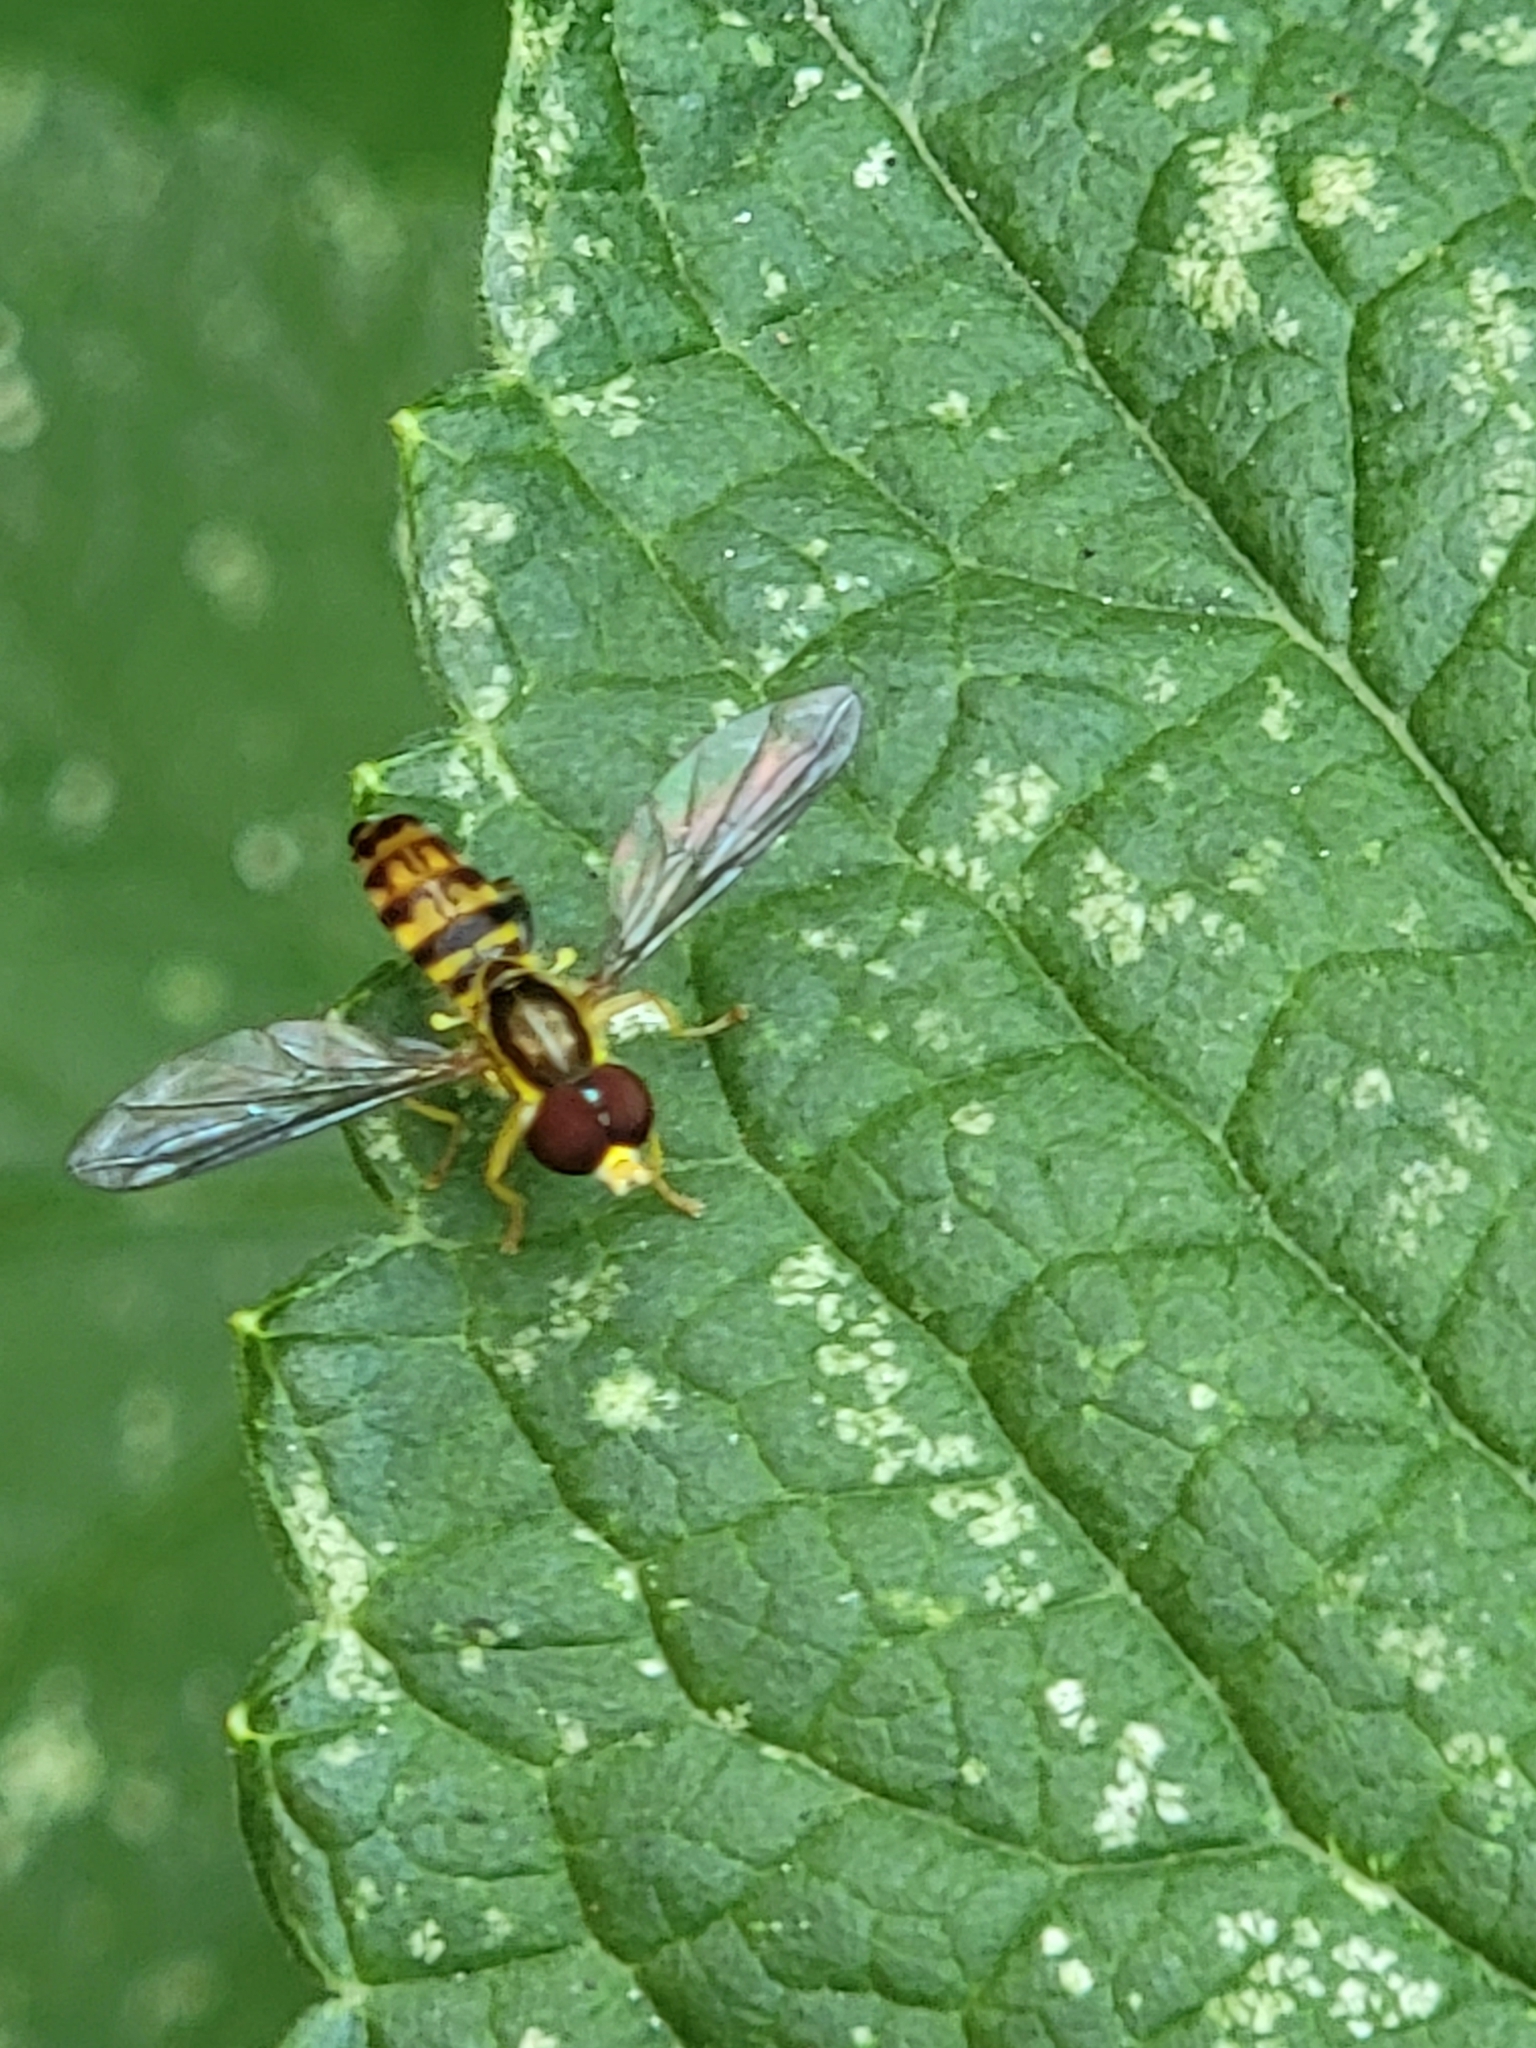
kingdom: Animalia
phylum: Arthropoda
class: Insecta
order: Diptera
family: Syrphidae
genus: Toxomerus
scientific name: Toxomerus geminatus
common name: Eastern calligrapher
